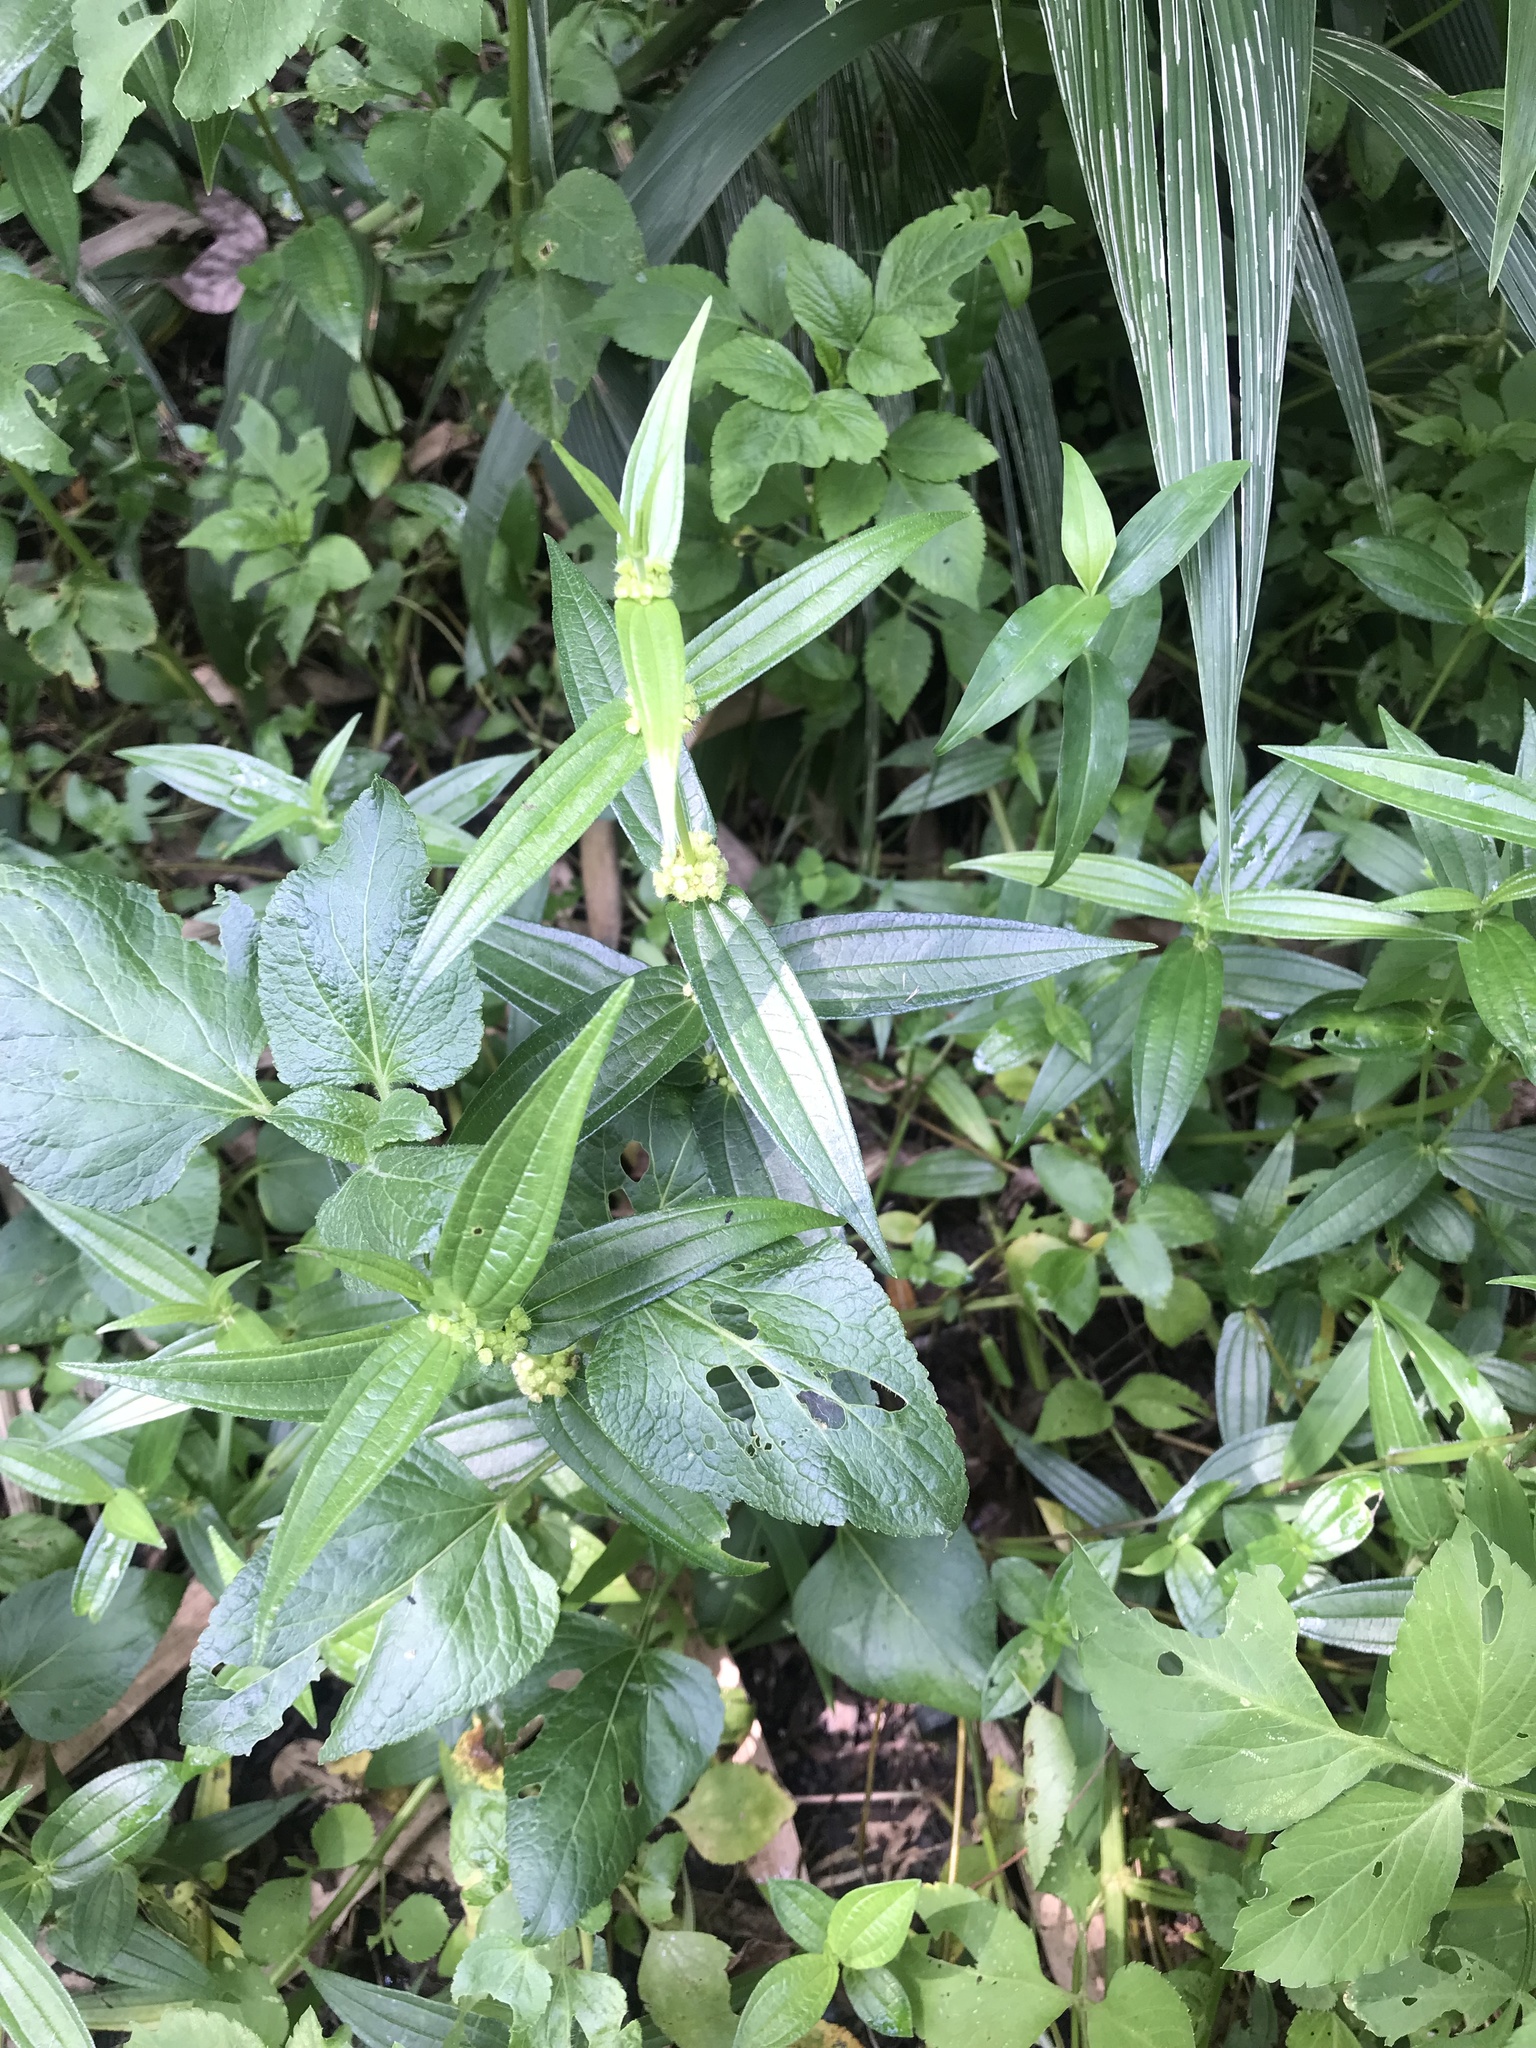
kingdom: Plantae
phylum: Tracheophyta
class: Magnoliopsida
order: Rosales
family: Urticaceae
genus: Gonostegia
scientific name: Gonostegia triandra
